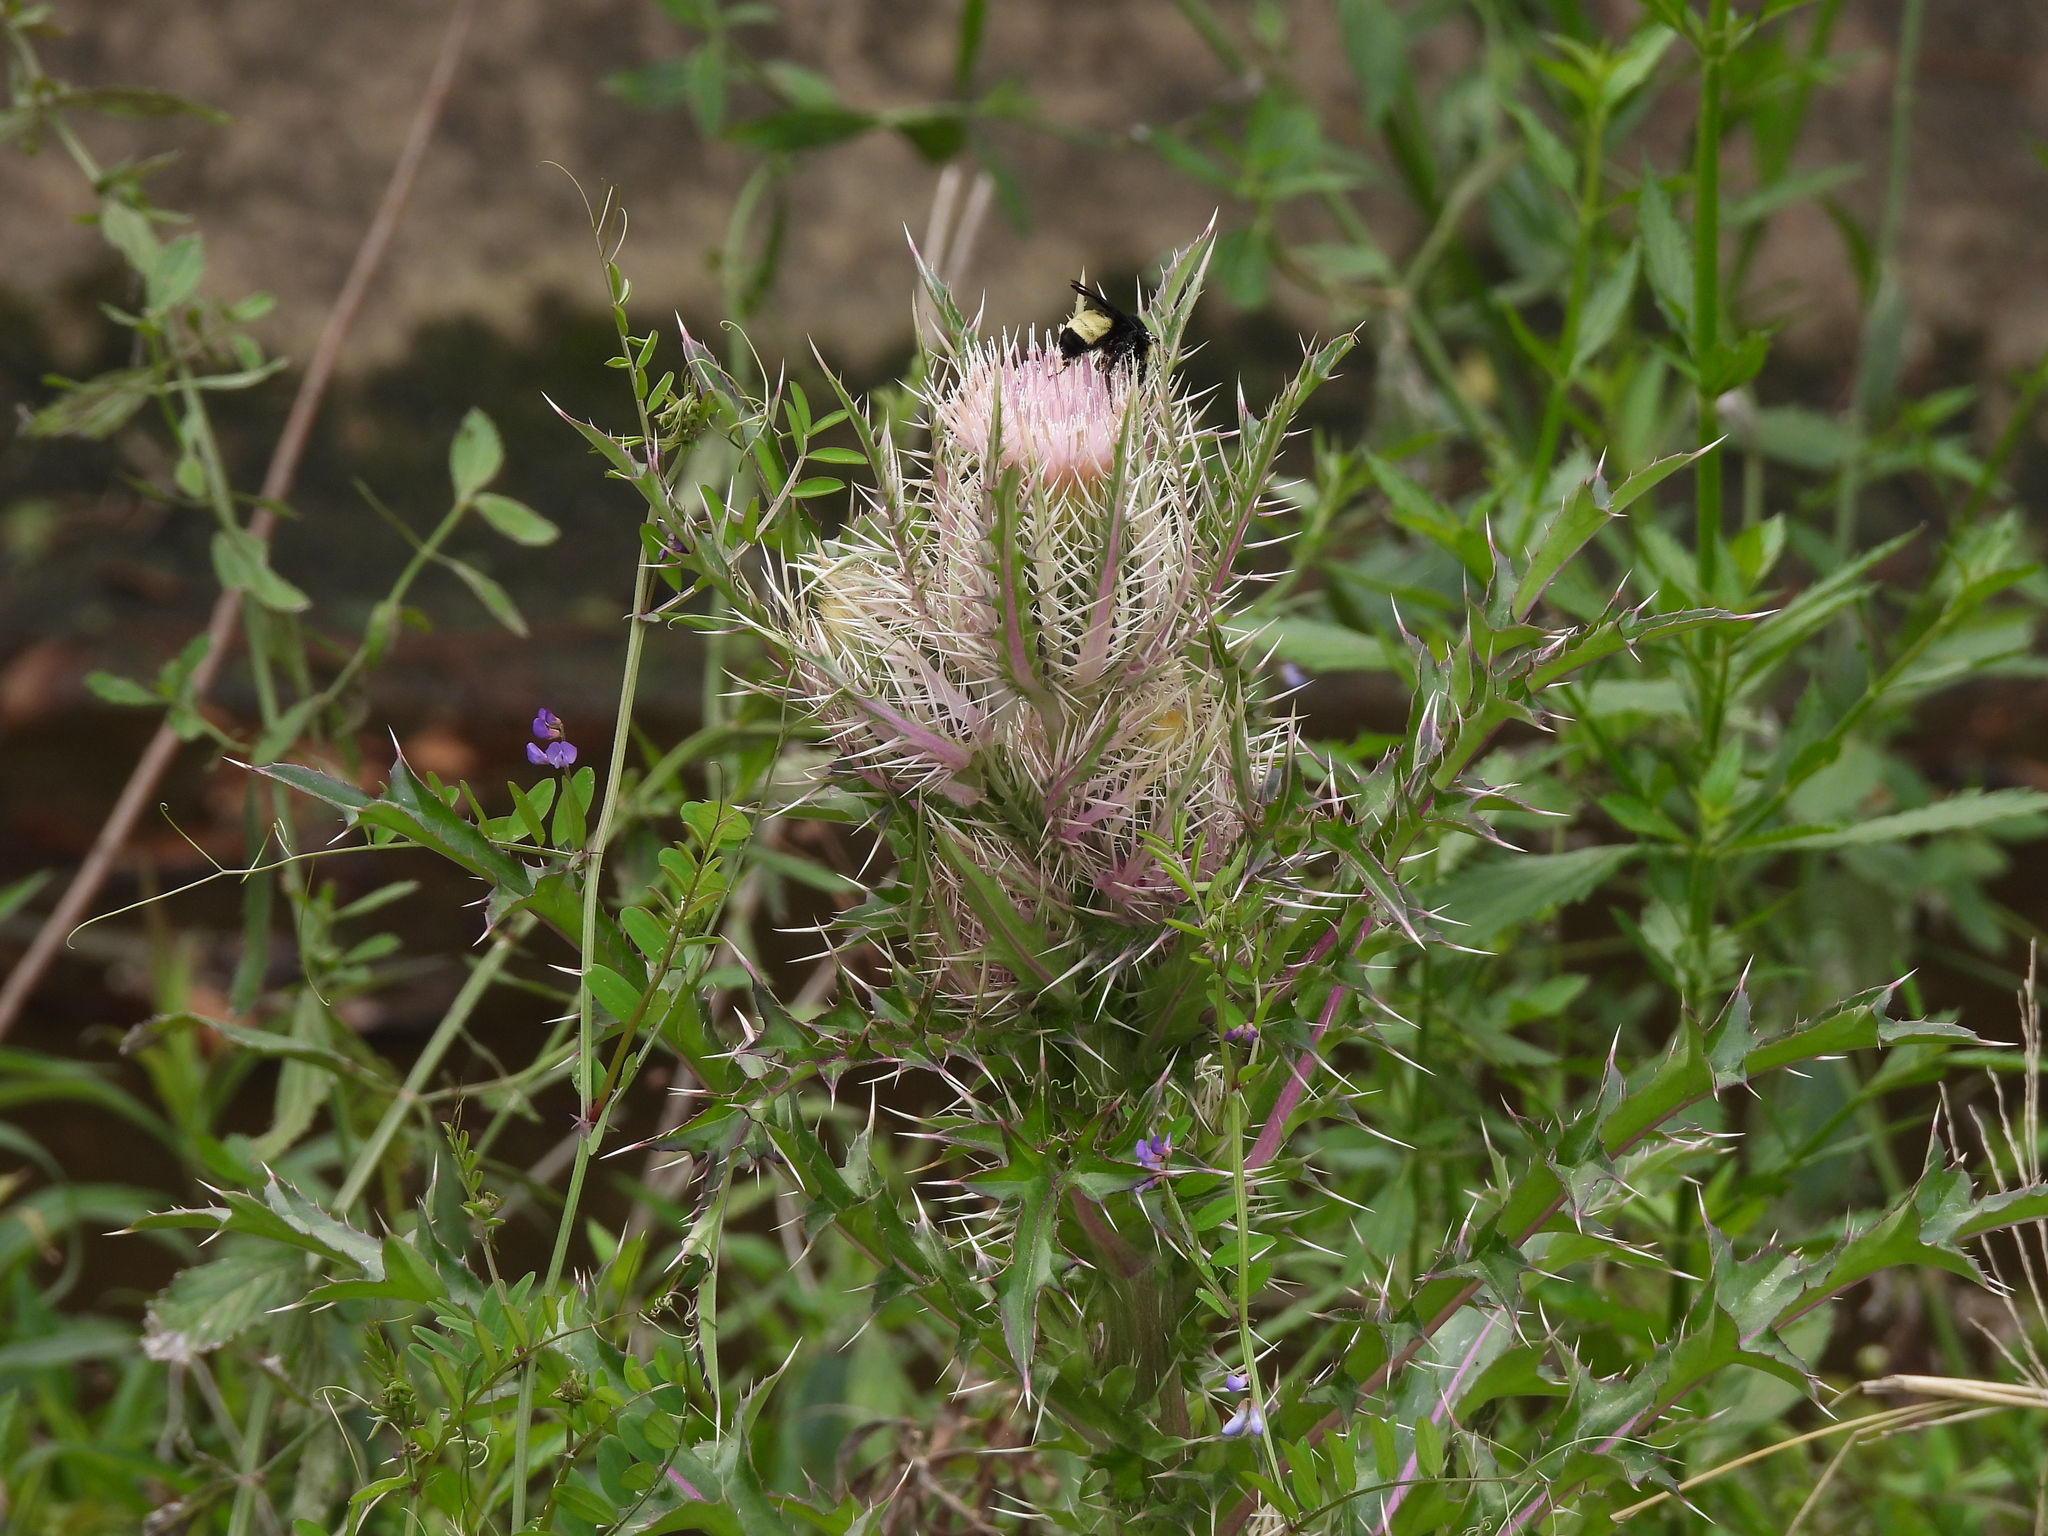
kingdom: Plantae
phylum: Tracheophyta
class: Magnoliopsida
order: Asterales
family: Asteraceae
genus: Cirsium
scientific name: Cirsium horridulum
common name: Bristly thistle
